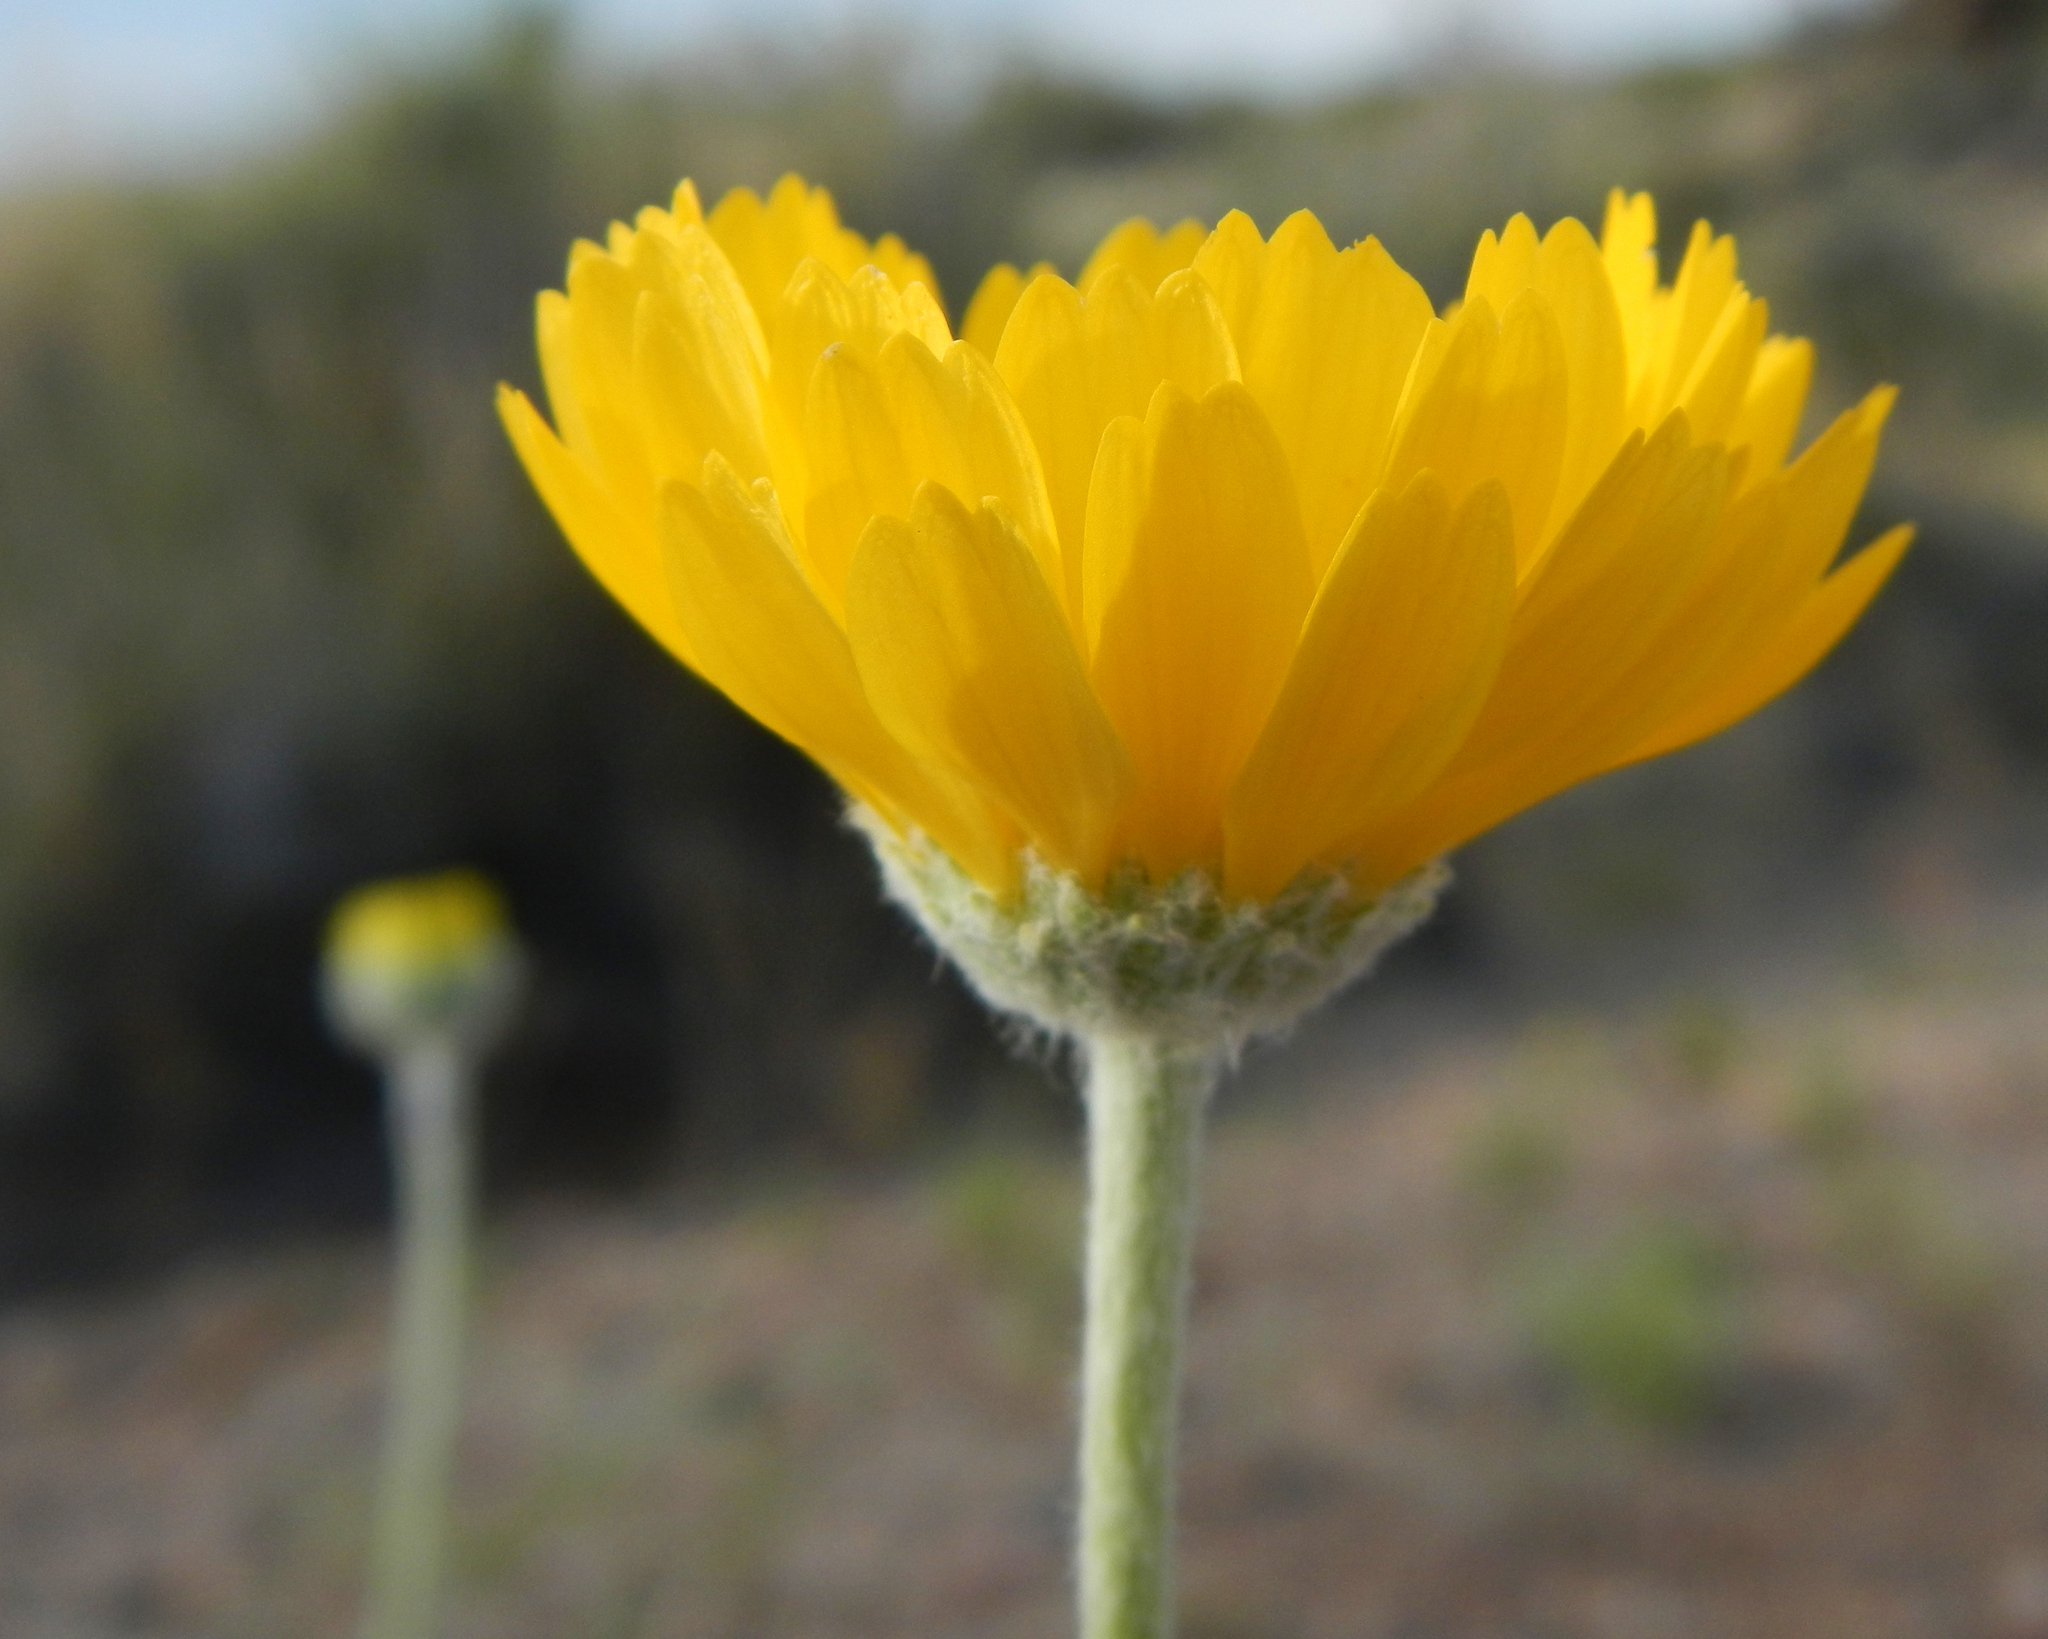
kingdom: Plantae
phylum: Tracheophyta
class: Magnoliopsida
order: Asterales
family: Asteraceae
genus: Baileya
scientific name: Baileya multiradiata
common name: Desert-marigold
